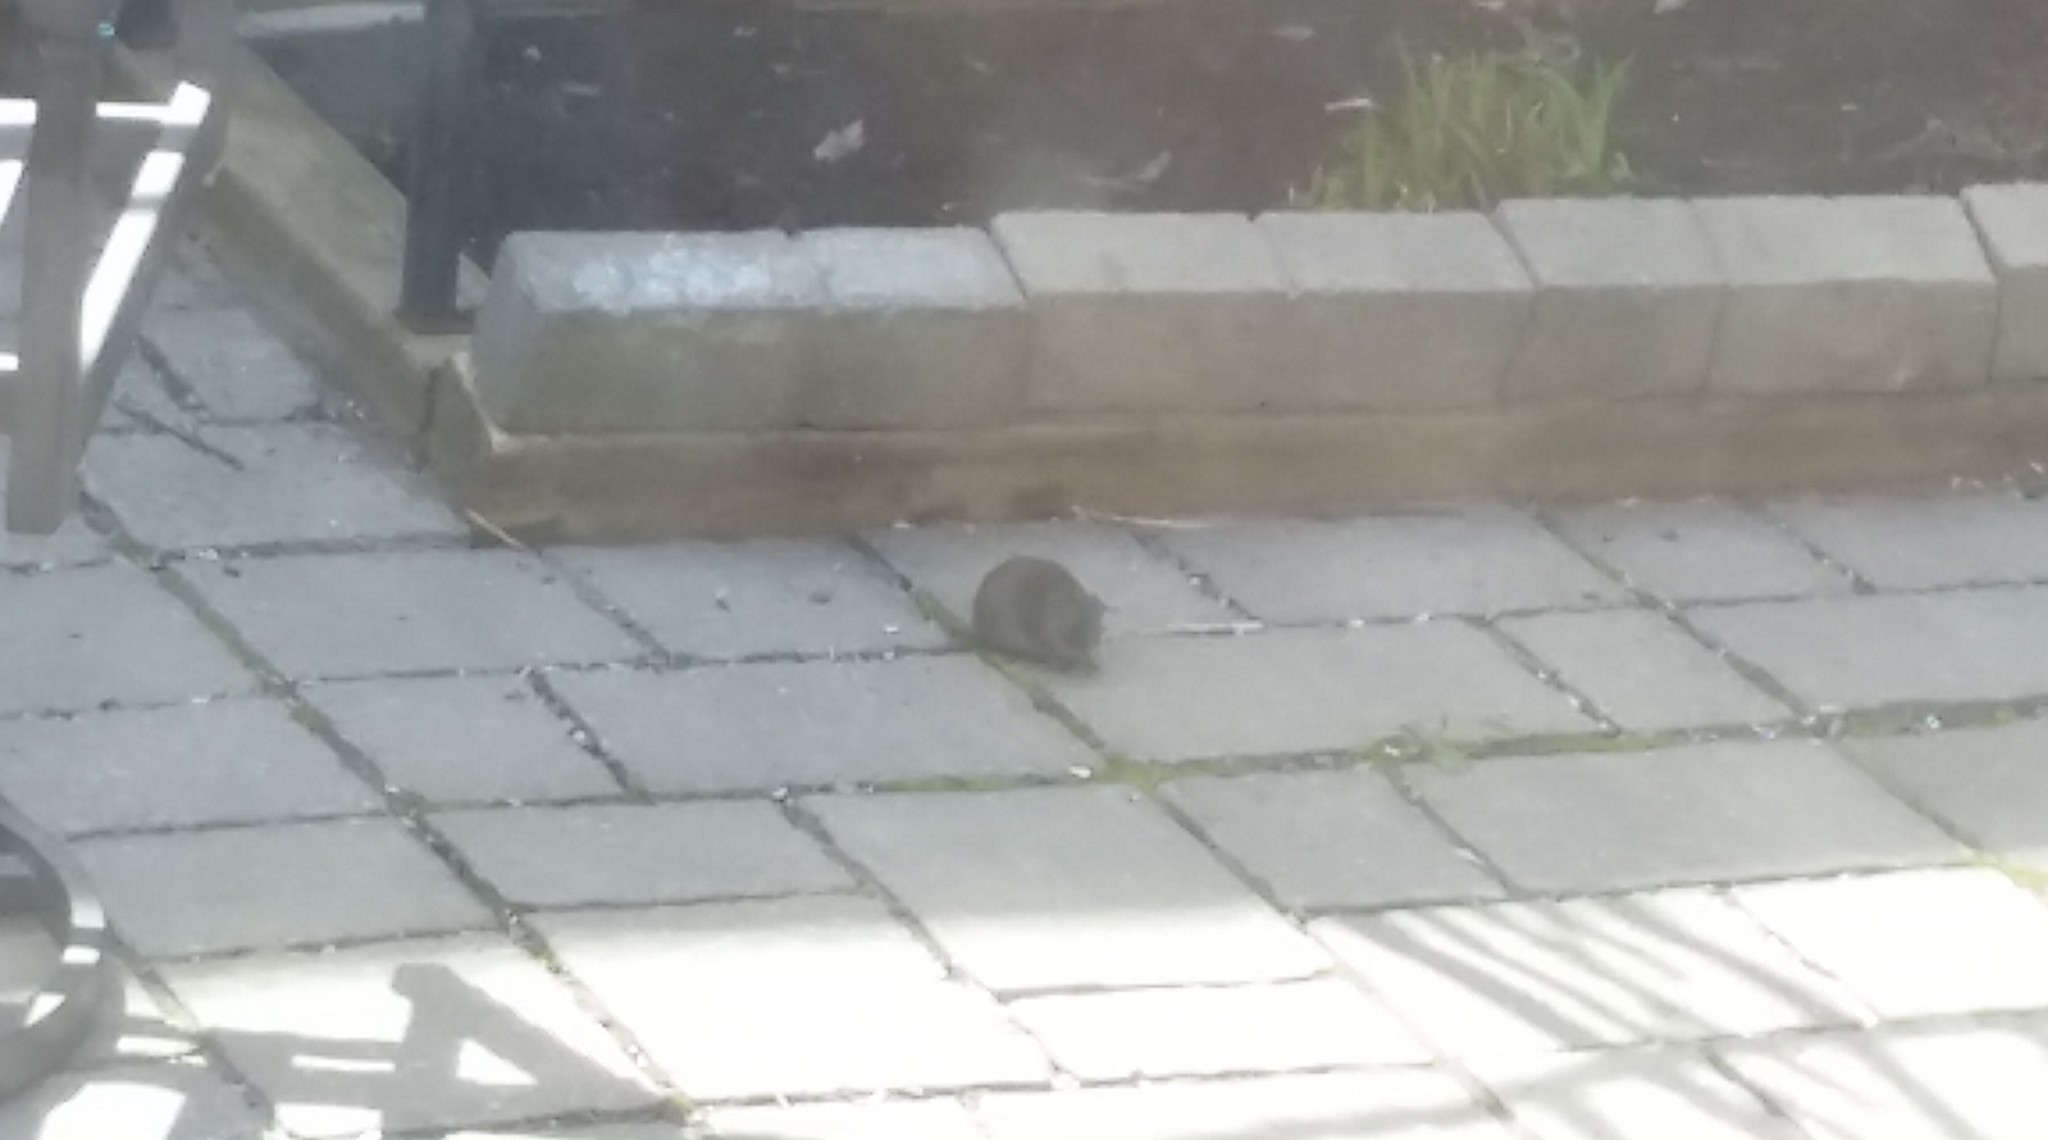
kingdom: Animalia
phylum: Chordata
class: Mammalia
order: Soricomorpha
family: Talpidae
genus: Condylura
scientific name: Condylura cristata
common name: Star-nosed mole
